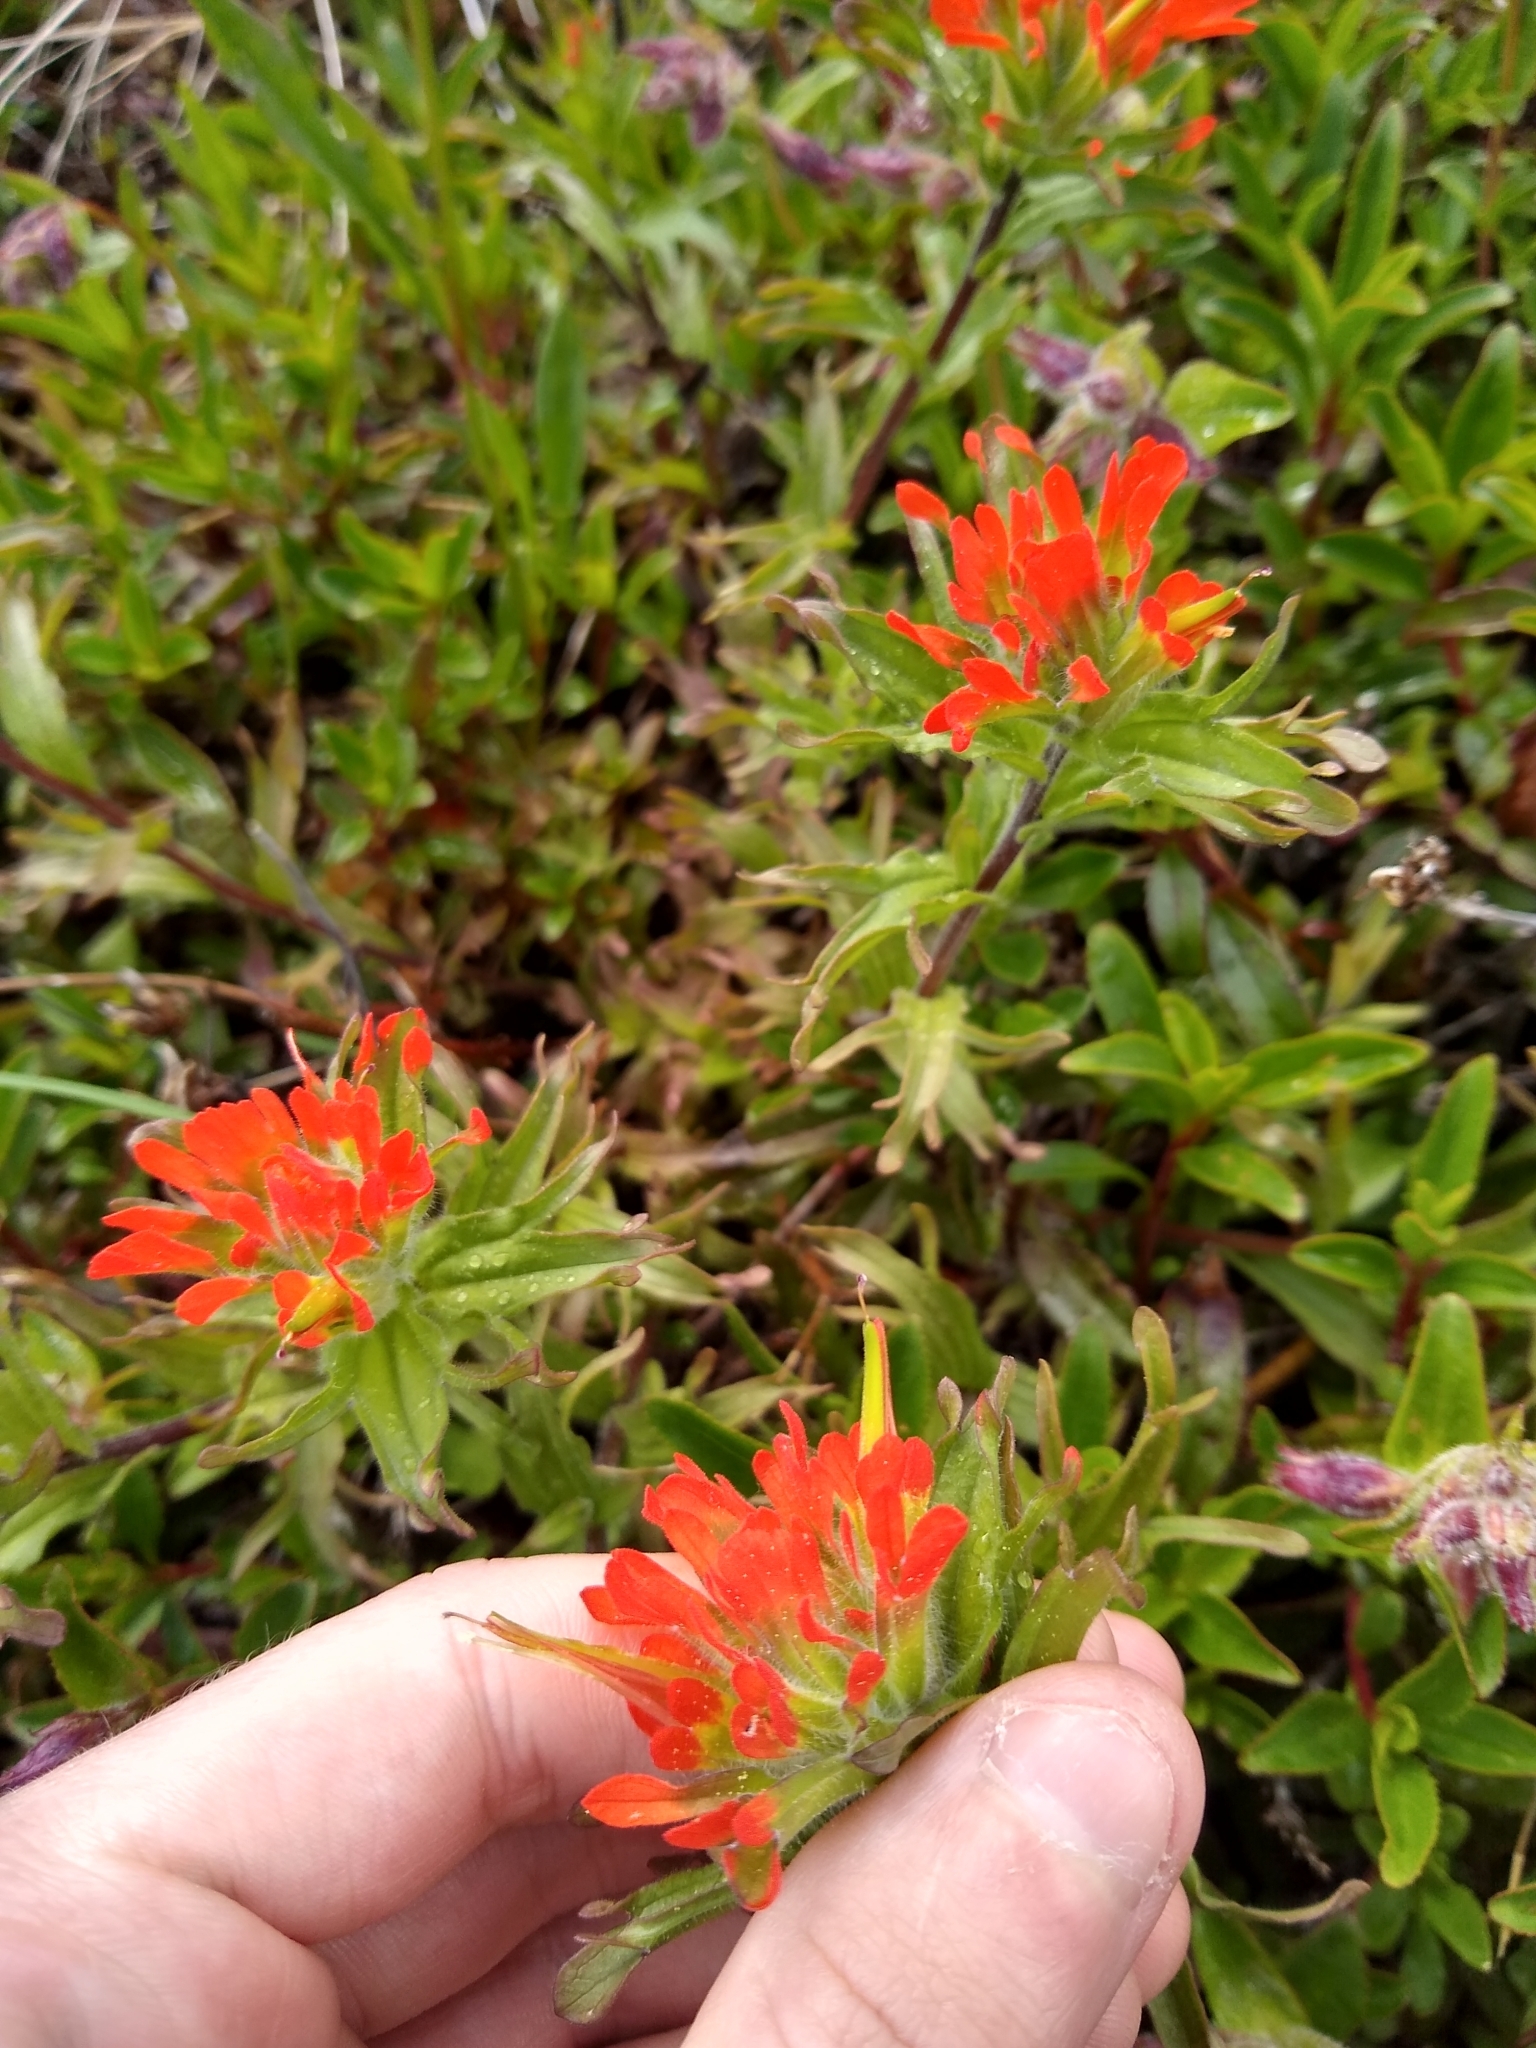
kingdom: Plantae
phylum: Tracheophyta
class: Magnoliopsida
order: Lamiales
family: Orobanchaceae
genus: Castilleja
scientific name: Castilleja hispida
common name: Bristly paintbrush
